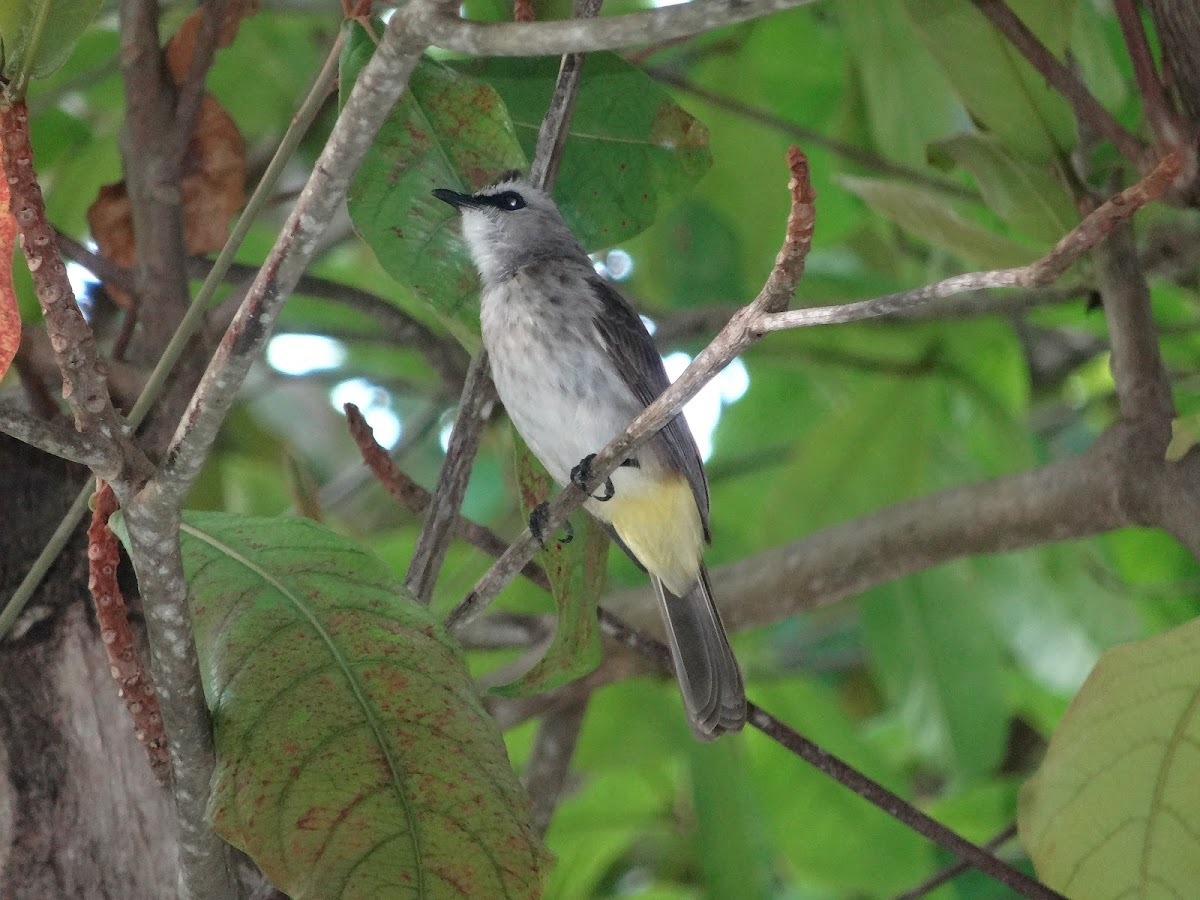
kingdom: Animalia
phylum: Chordata
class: Aves
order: Passeriformes
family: Pycnonotidae
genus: Pycnonotus
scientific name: Pycnonotus goiavier
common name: Yellow-vented bulbul
